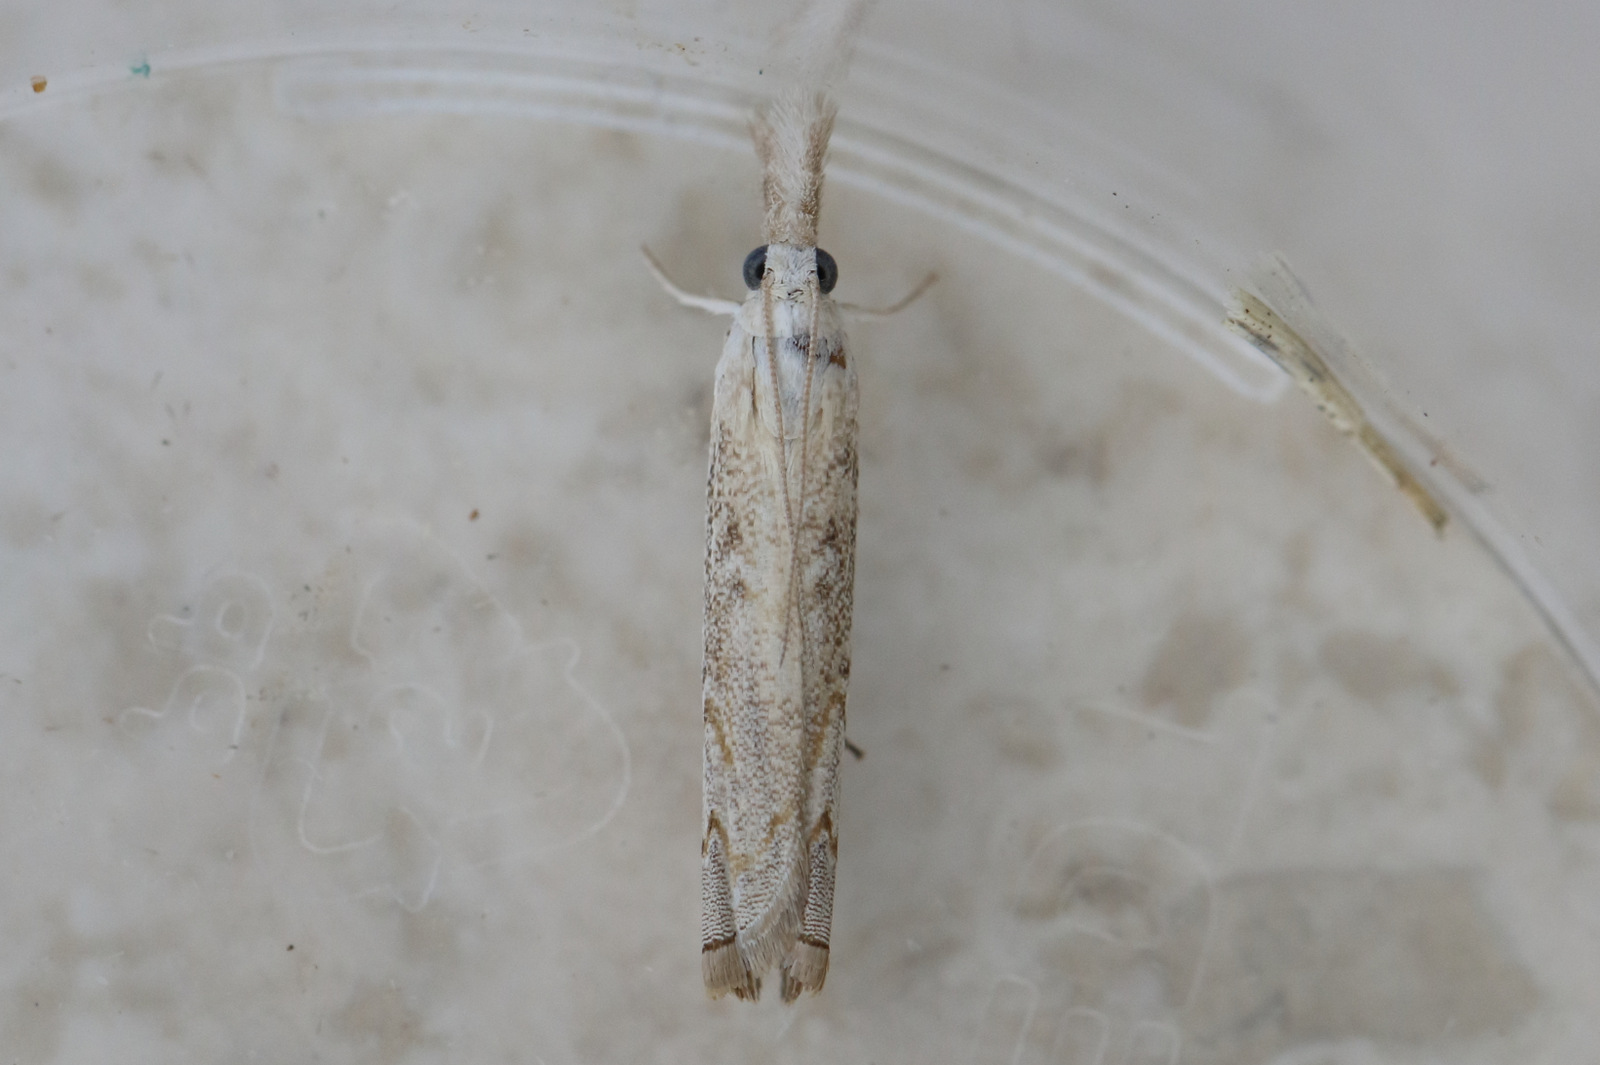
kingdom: Animalia
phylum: Arthropoda
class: Insecta
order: Lepidoptera
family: Crambidae
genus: Culladia
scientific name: Culladia cuneiferellus
